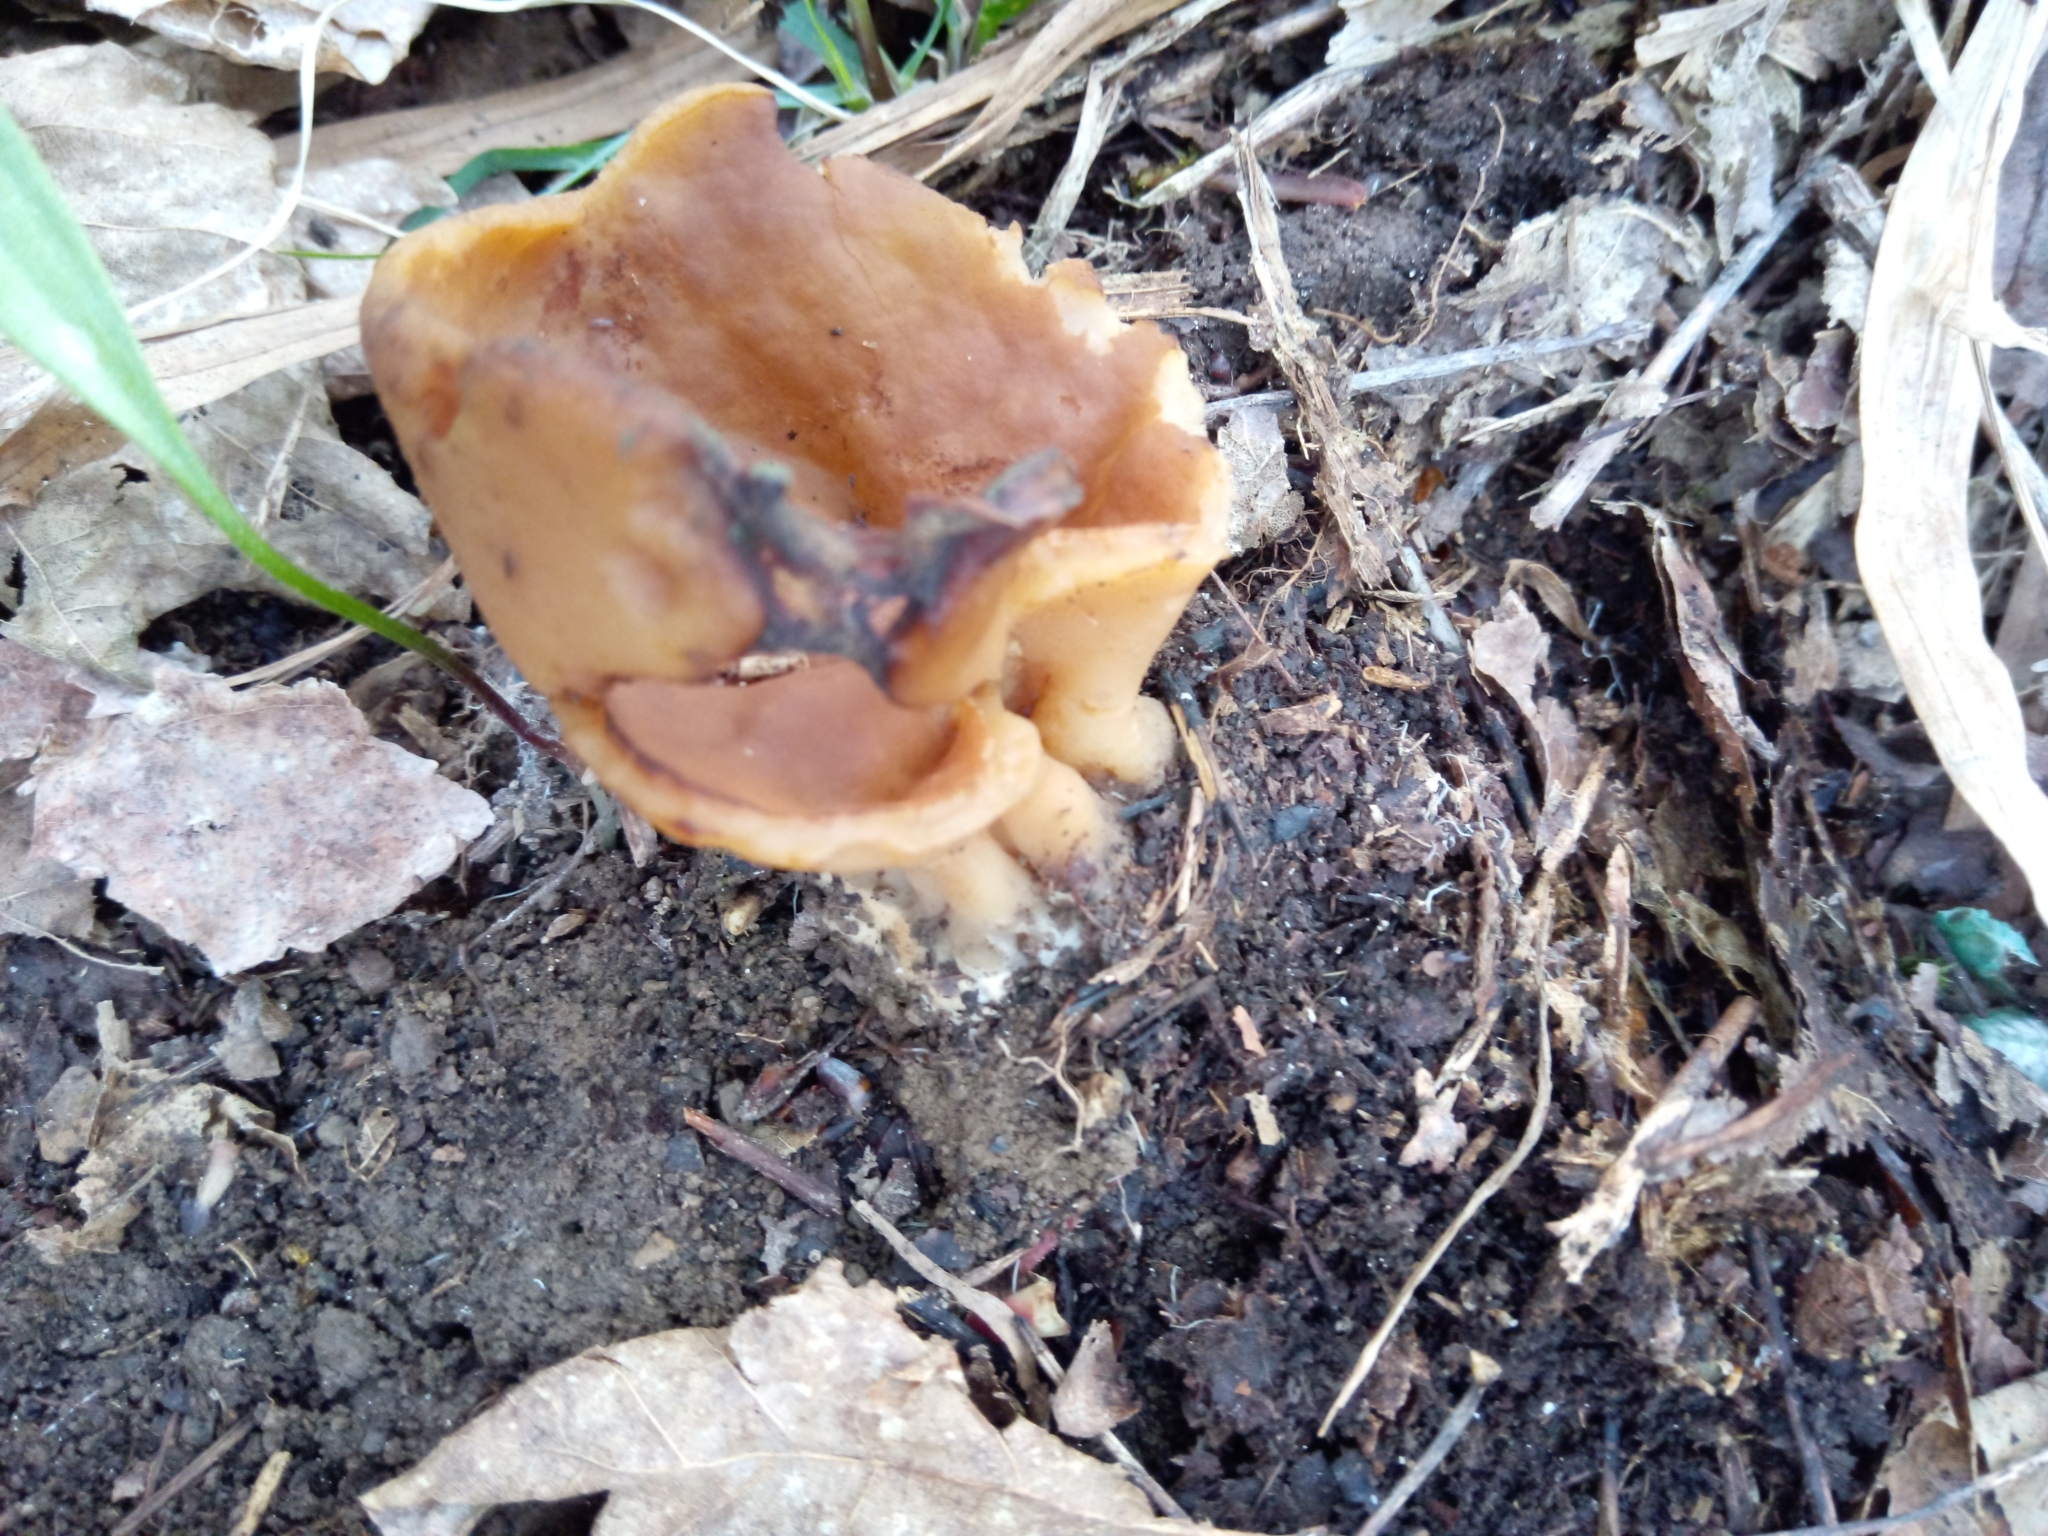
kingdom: Fungi
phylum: Ascomycota
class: Pezizomycetes
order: Pezizales
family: Discinaceae
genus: Gyromitra
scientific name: Gyromitra leucoxantha
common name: Fishtail cup
